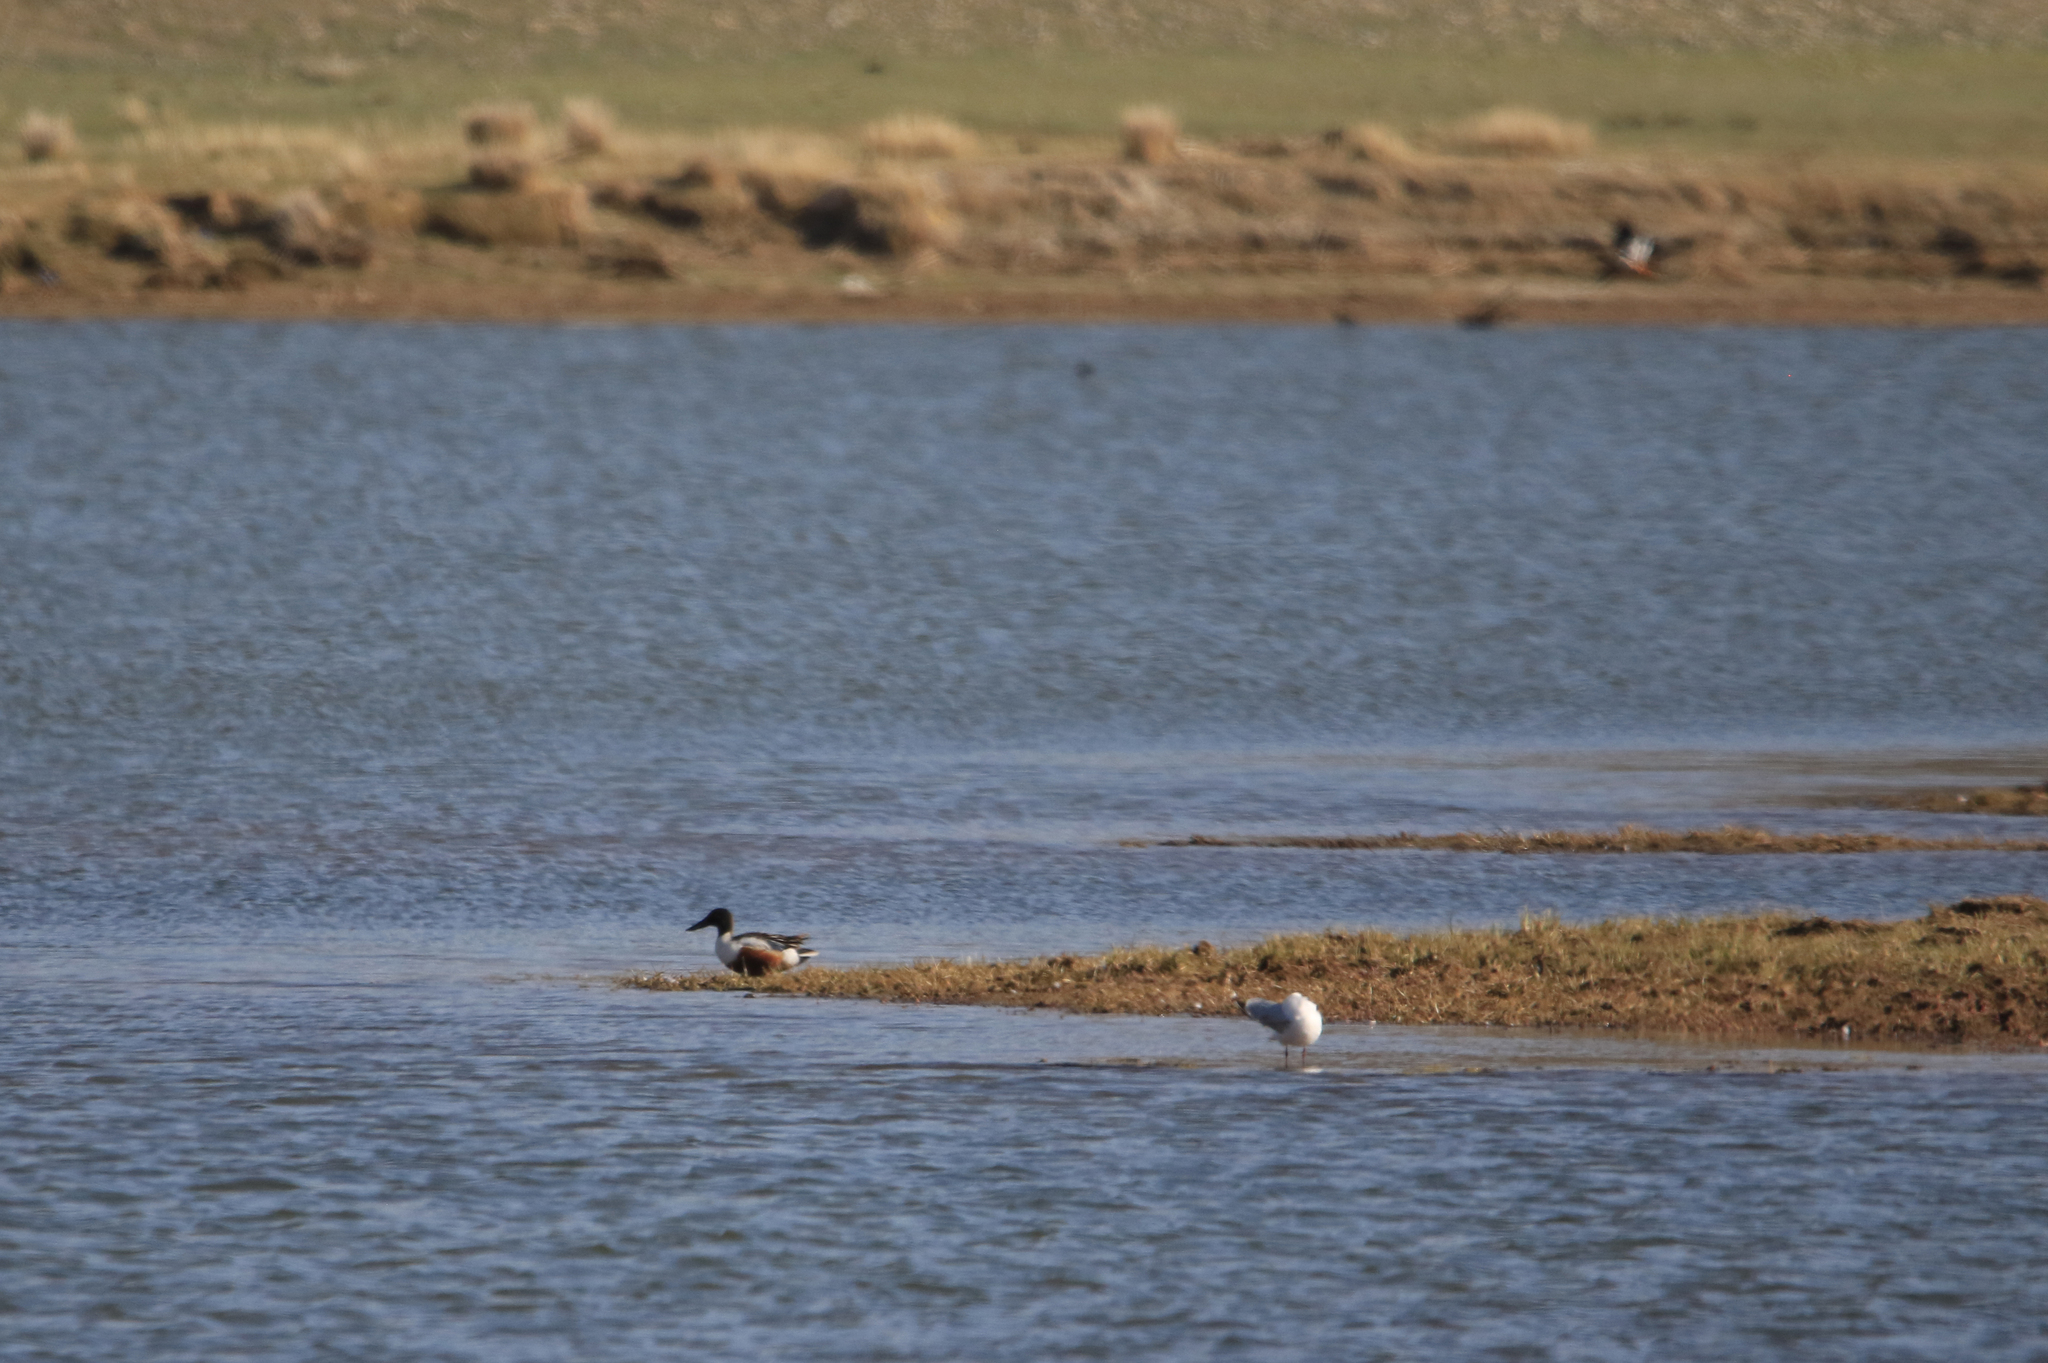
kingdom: Animalia
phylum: Chordata
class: Aves
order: Anseriformes
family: Anatidae
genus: Spatula
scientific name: Spatula clypeata
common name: Northern shoveler
